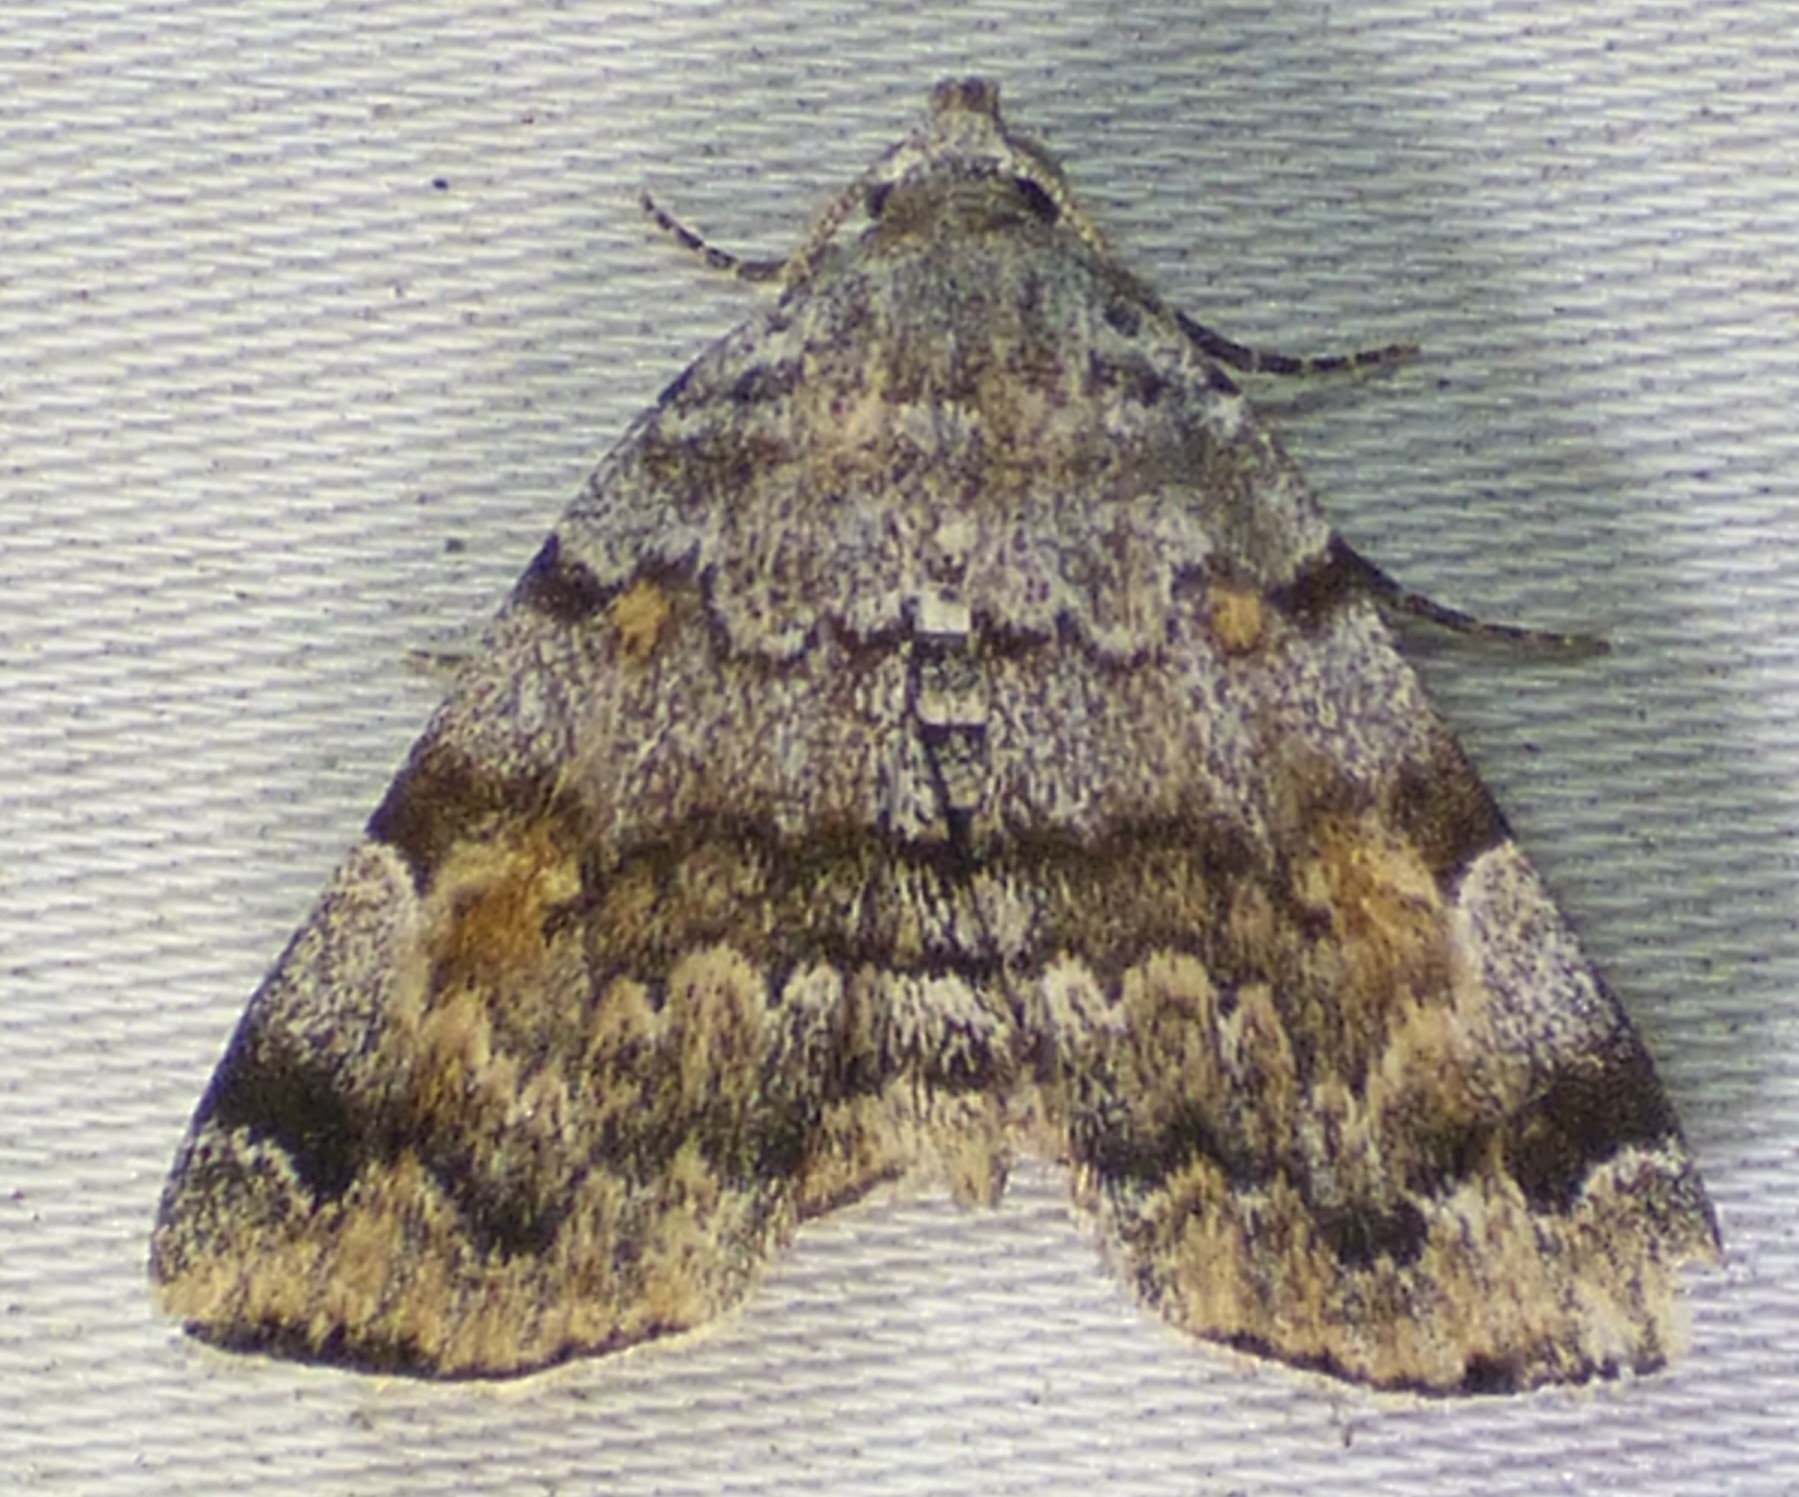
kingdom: Animalia
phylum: Arthropoda
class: Insecta
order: Lepidoptera
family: Erebidae
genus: Idia
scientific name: Idia americalis
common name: American idia moth
